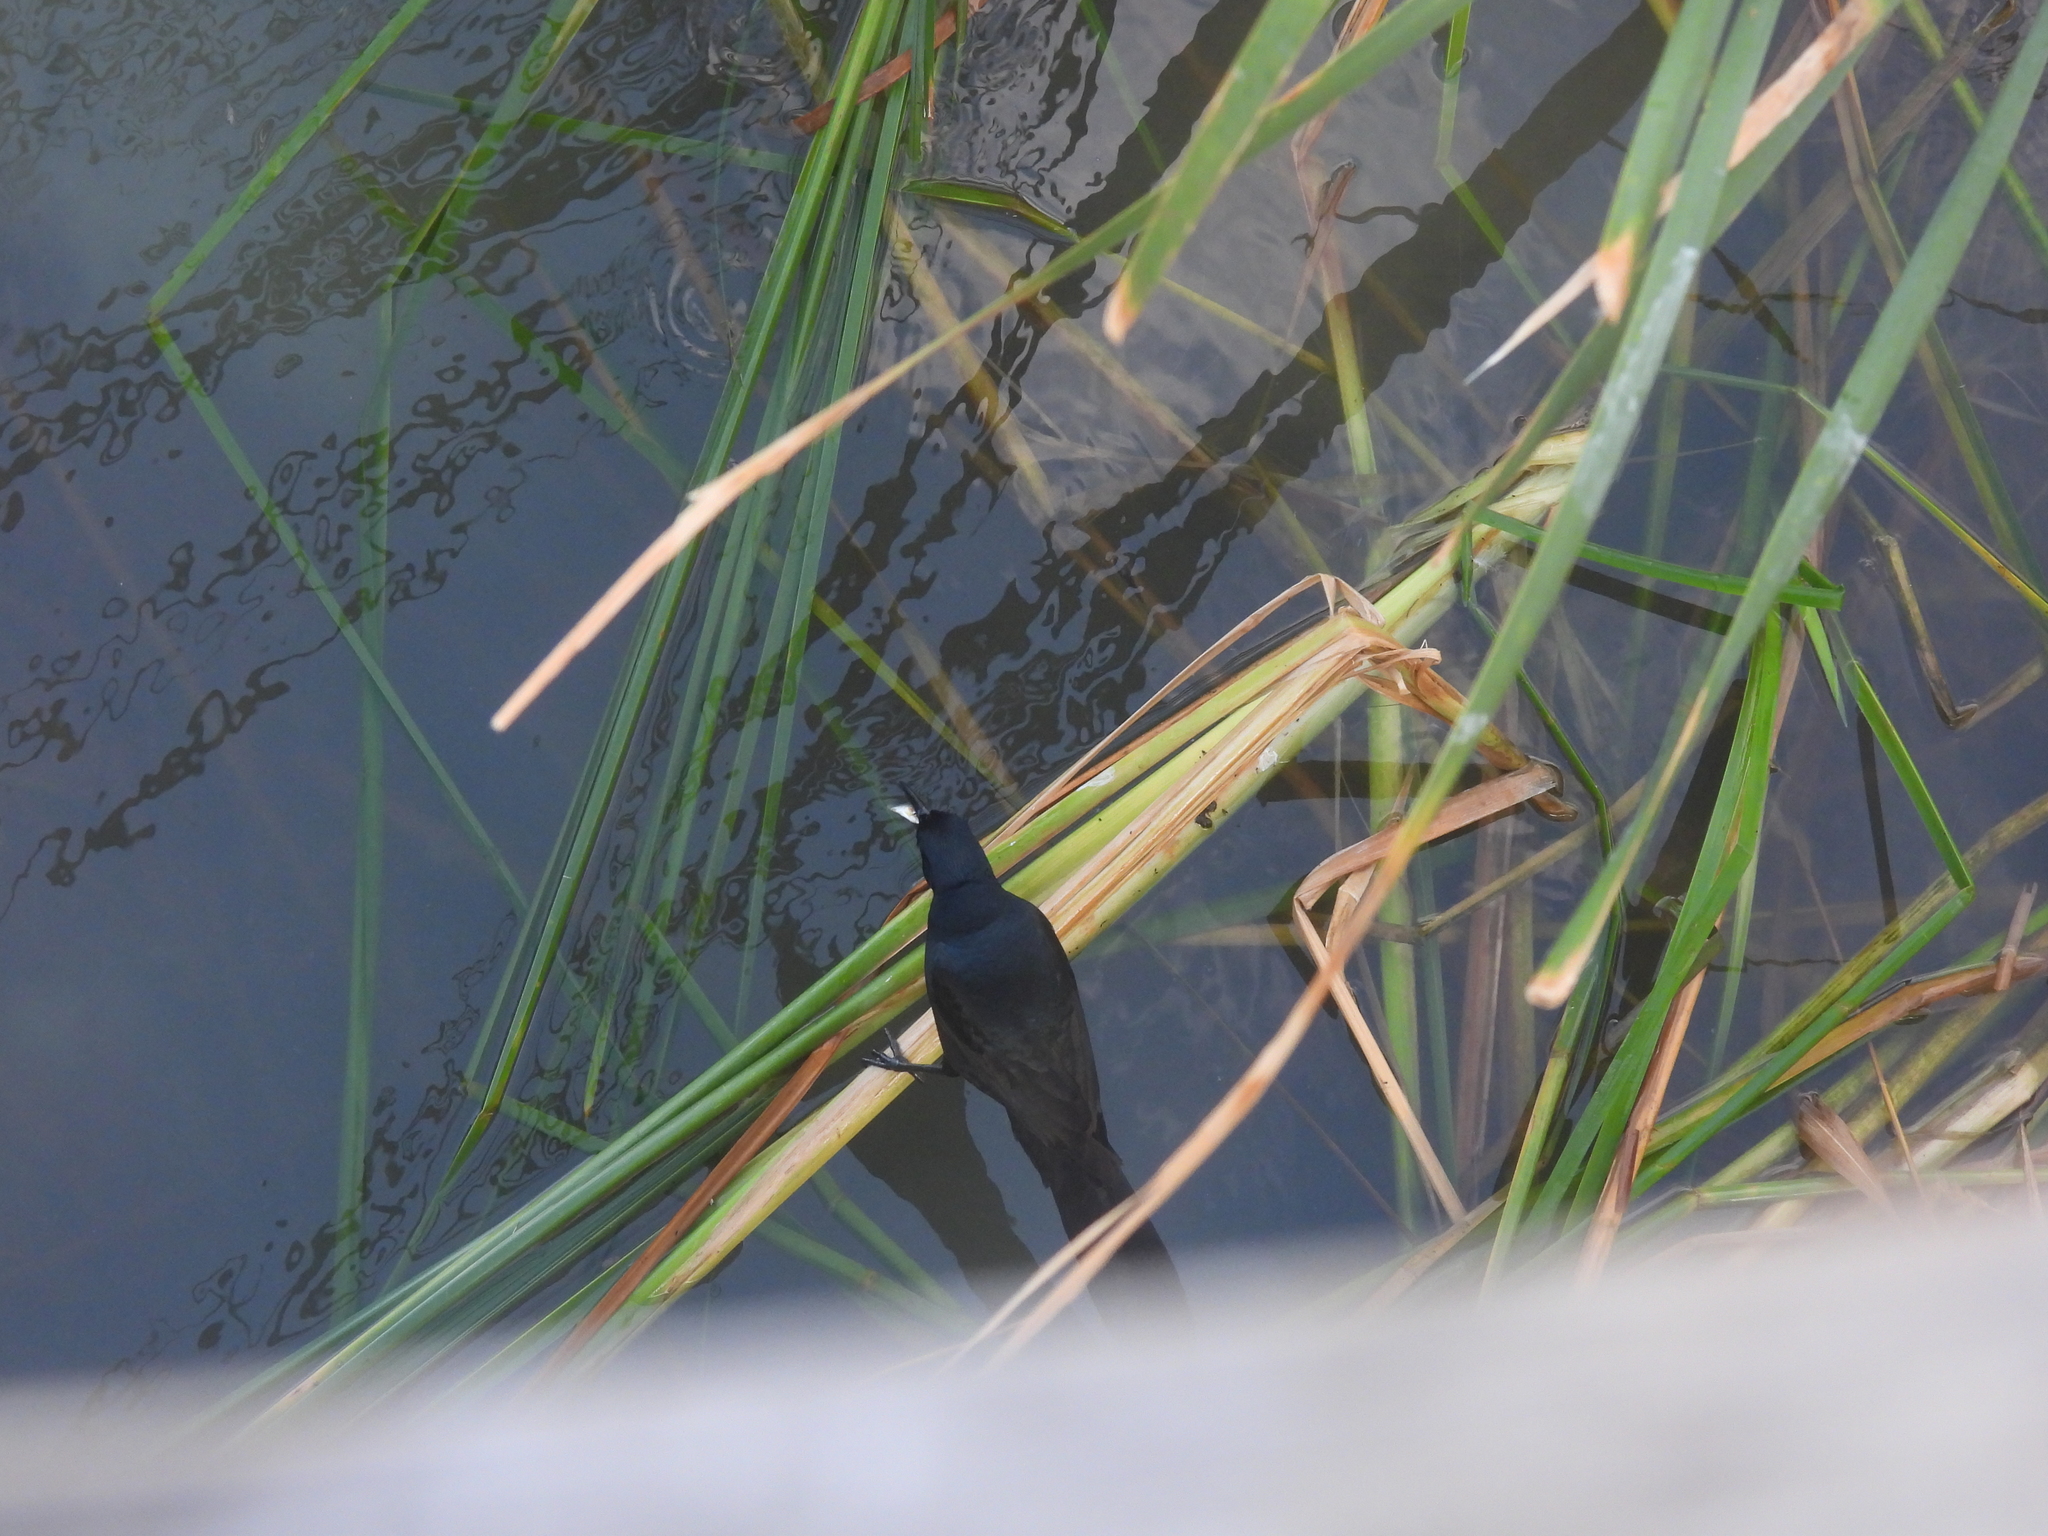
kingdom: Animalia
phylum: Chordata
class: Aves
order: Passeriformes
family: Icteridae
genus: Quiscalus
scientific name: Quiscalus mexicanus
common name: Great-tailed grackle
